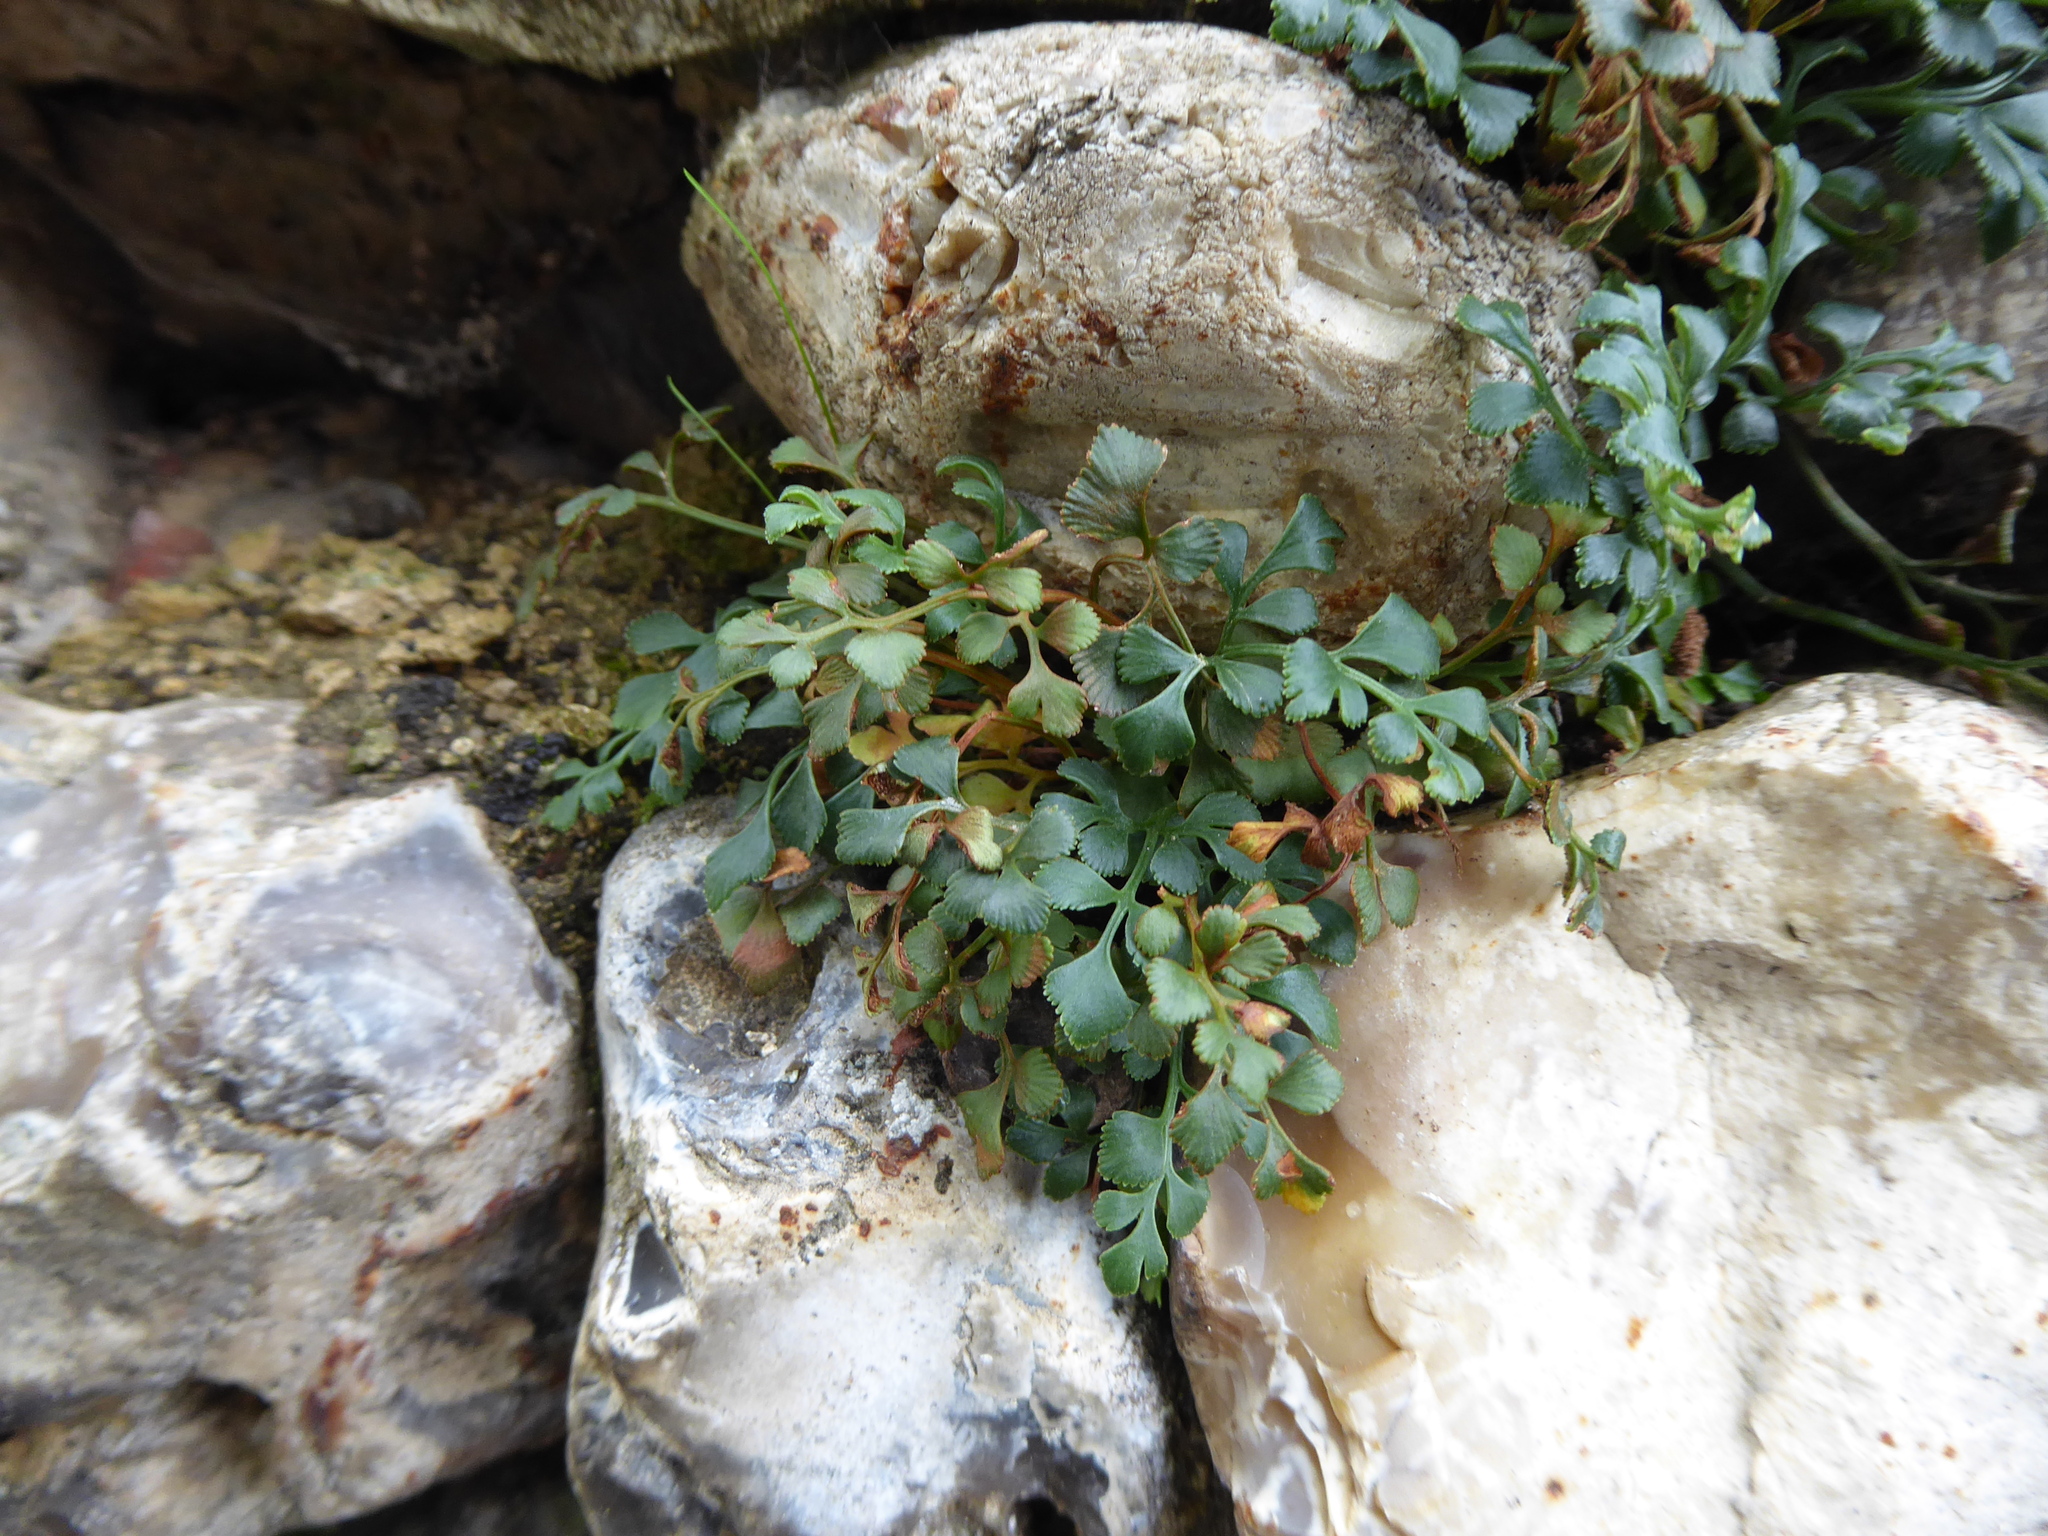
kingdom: Plantae
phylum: Tracheophyta
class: Polypodiopsida
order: Polypodiales
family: Aspleniaceae
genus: Asplenium
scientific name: Asplenium ruta-muraria
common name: Wall-rue
